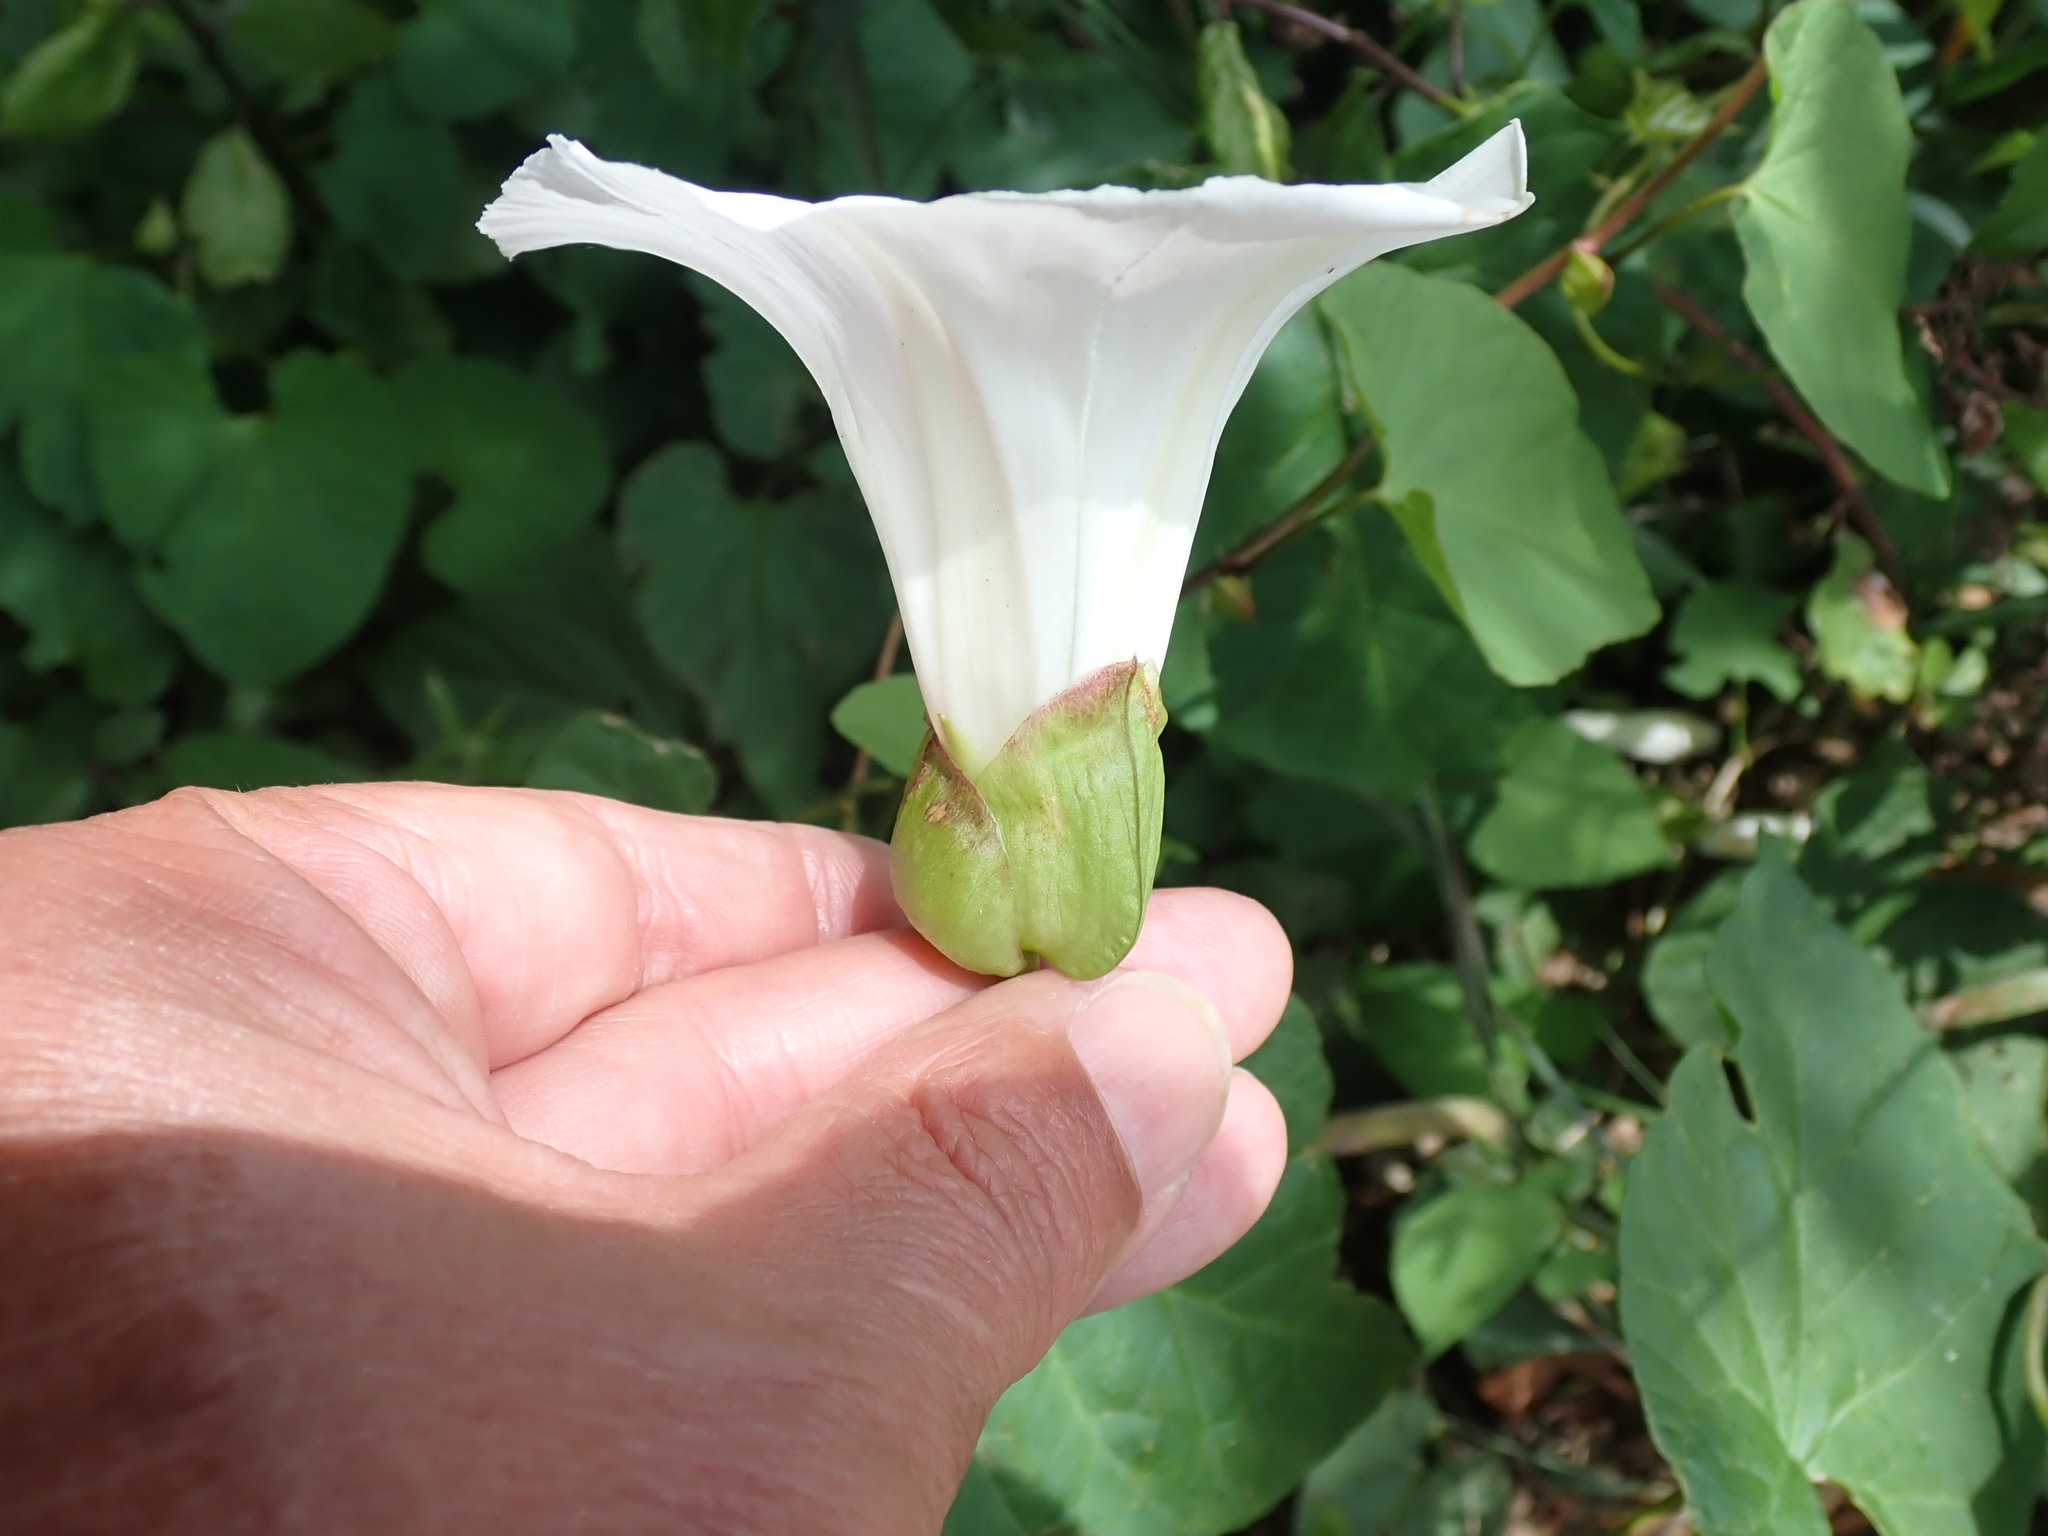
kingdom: Plantae
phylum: Tracheophyta
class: Magnoliopsida
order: Solanales
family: Convolvulaceae
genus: Calystegia
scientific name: Calystegia silvatica
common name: Large bindweed
